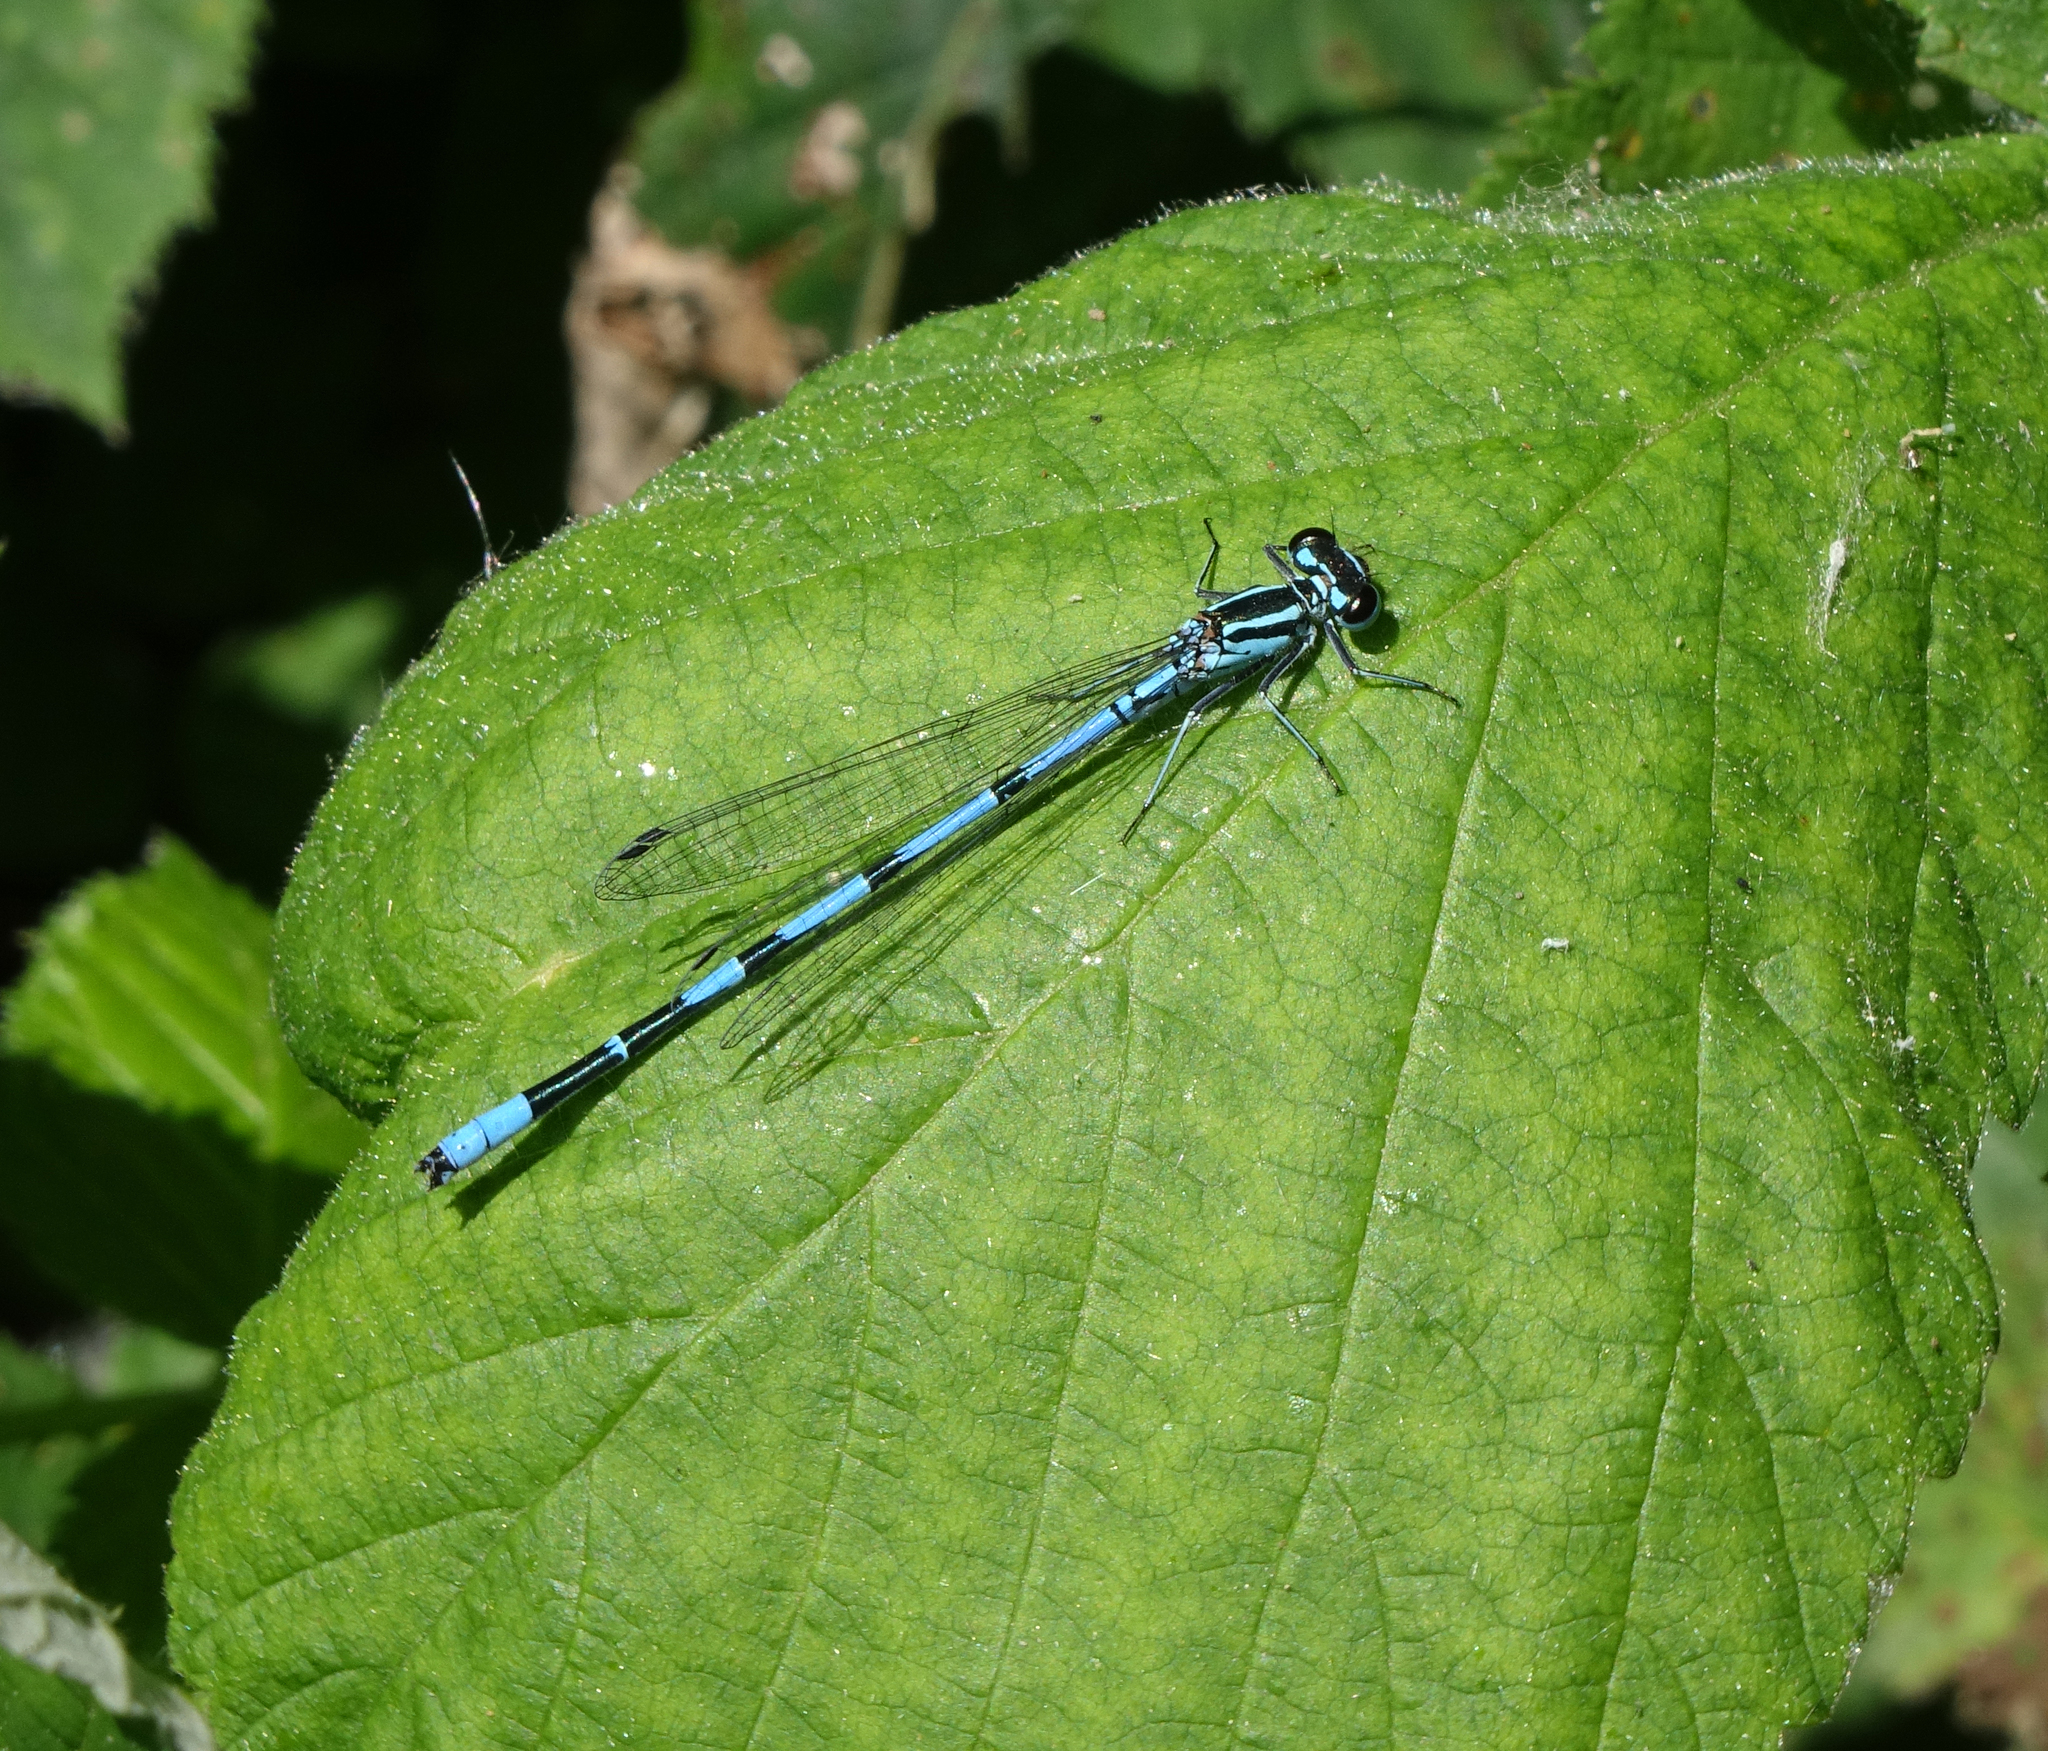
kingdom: Animalia
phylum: Arthropoda
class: Insecta
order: Odonata
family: Coenagrionidae
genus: Coenagrion
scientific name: Coenagrion australocaspicum
